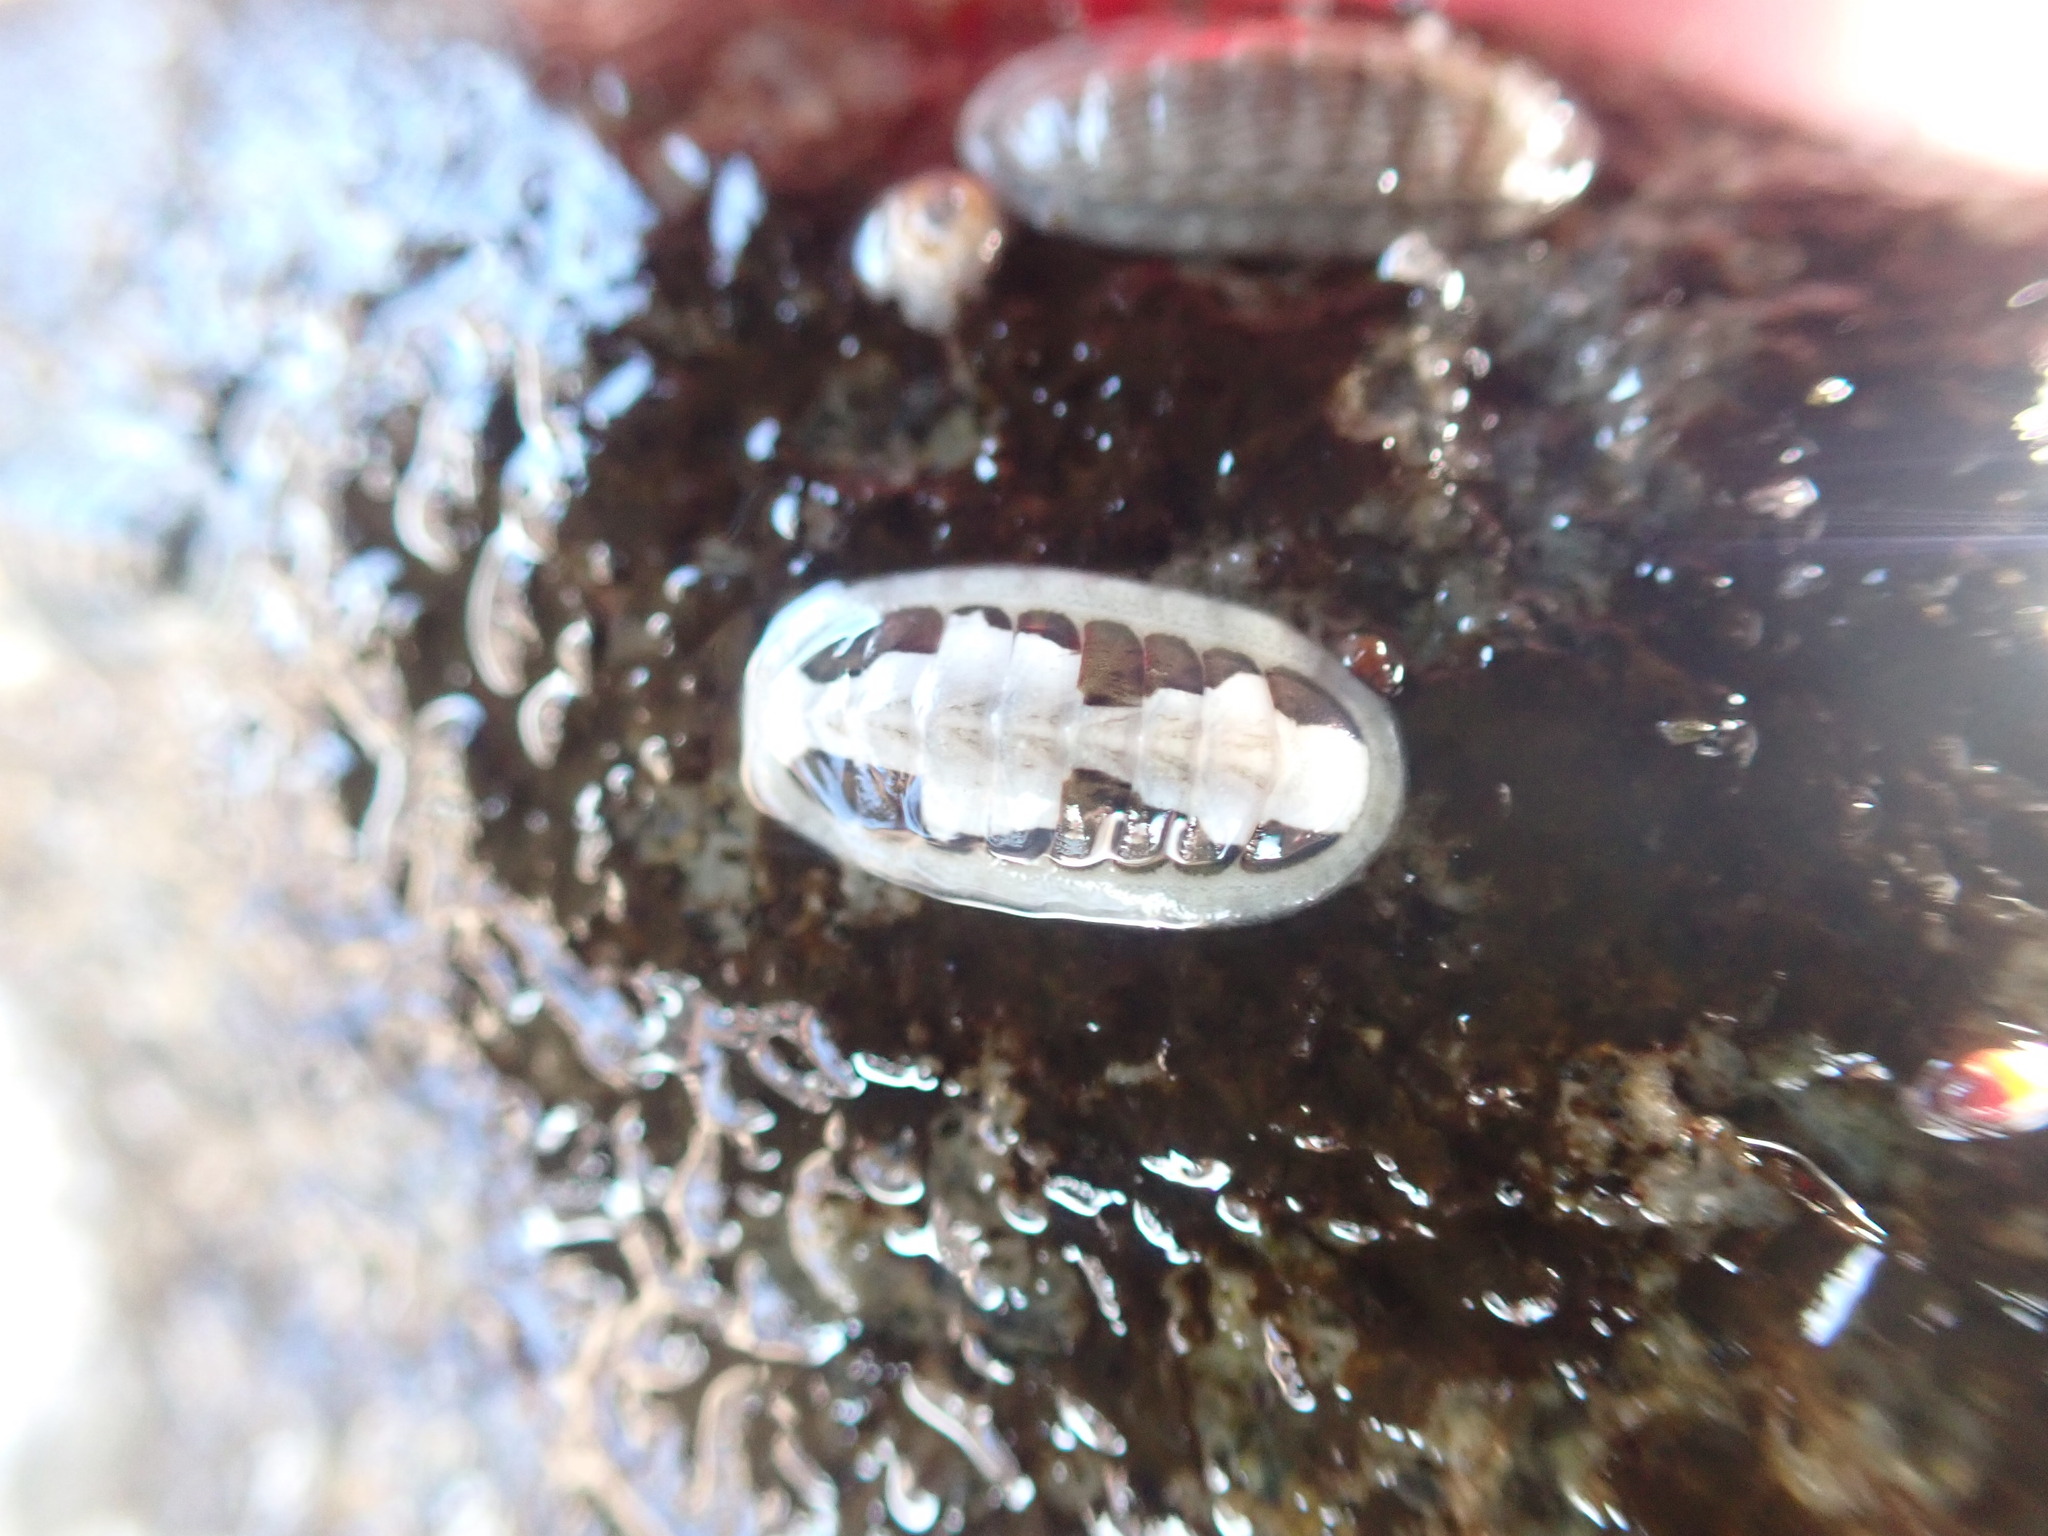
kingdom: Animalia
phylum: Mollusca
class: Polyplacophora
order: Chitonida
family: Ischnochitonidae
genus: Ischnochiton
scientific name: Ischnochiton maorianus
